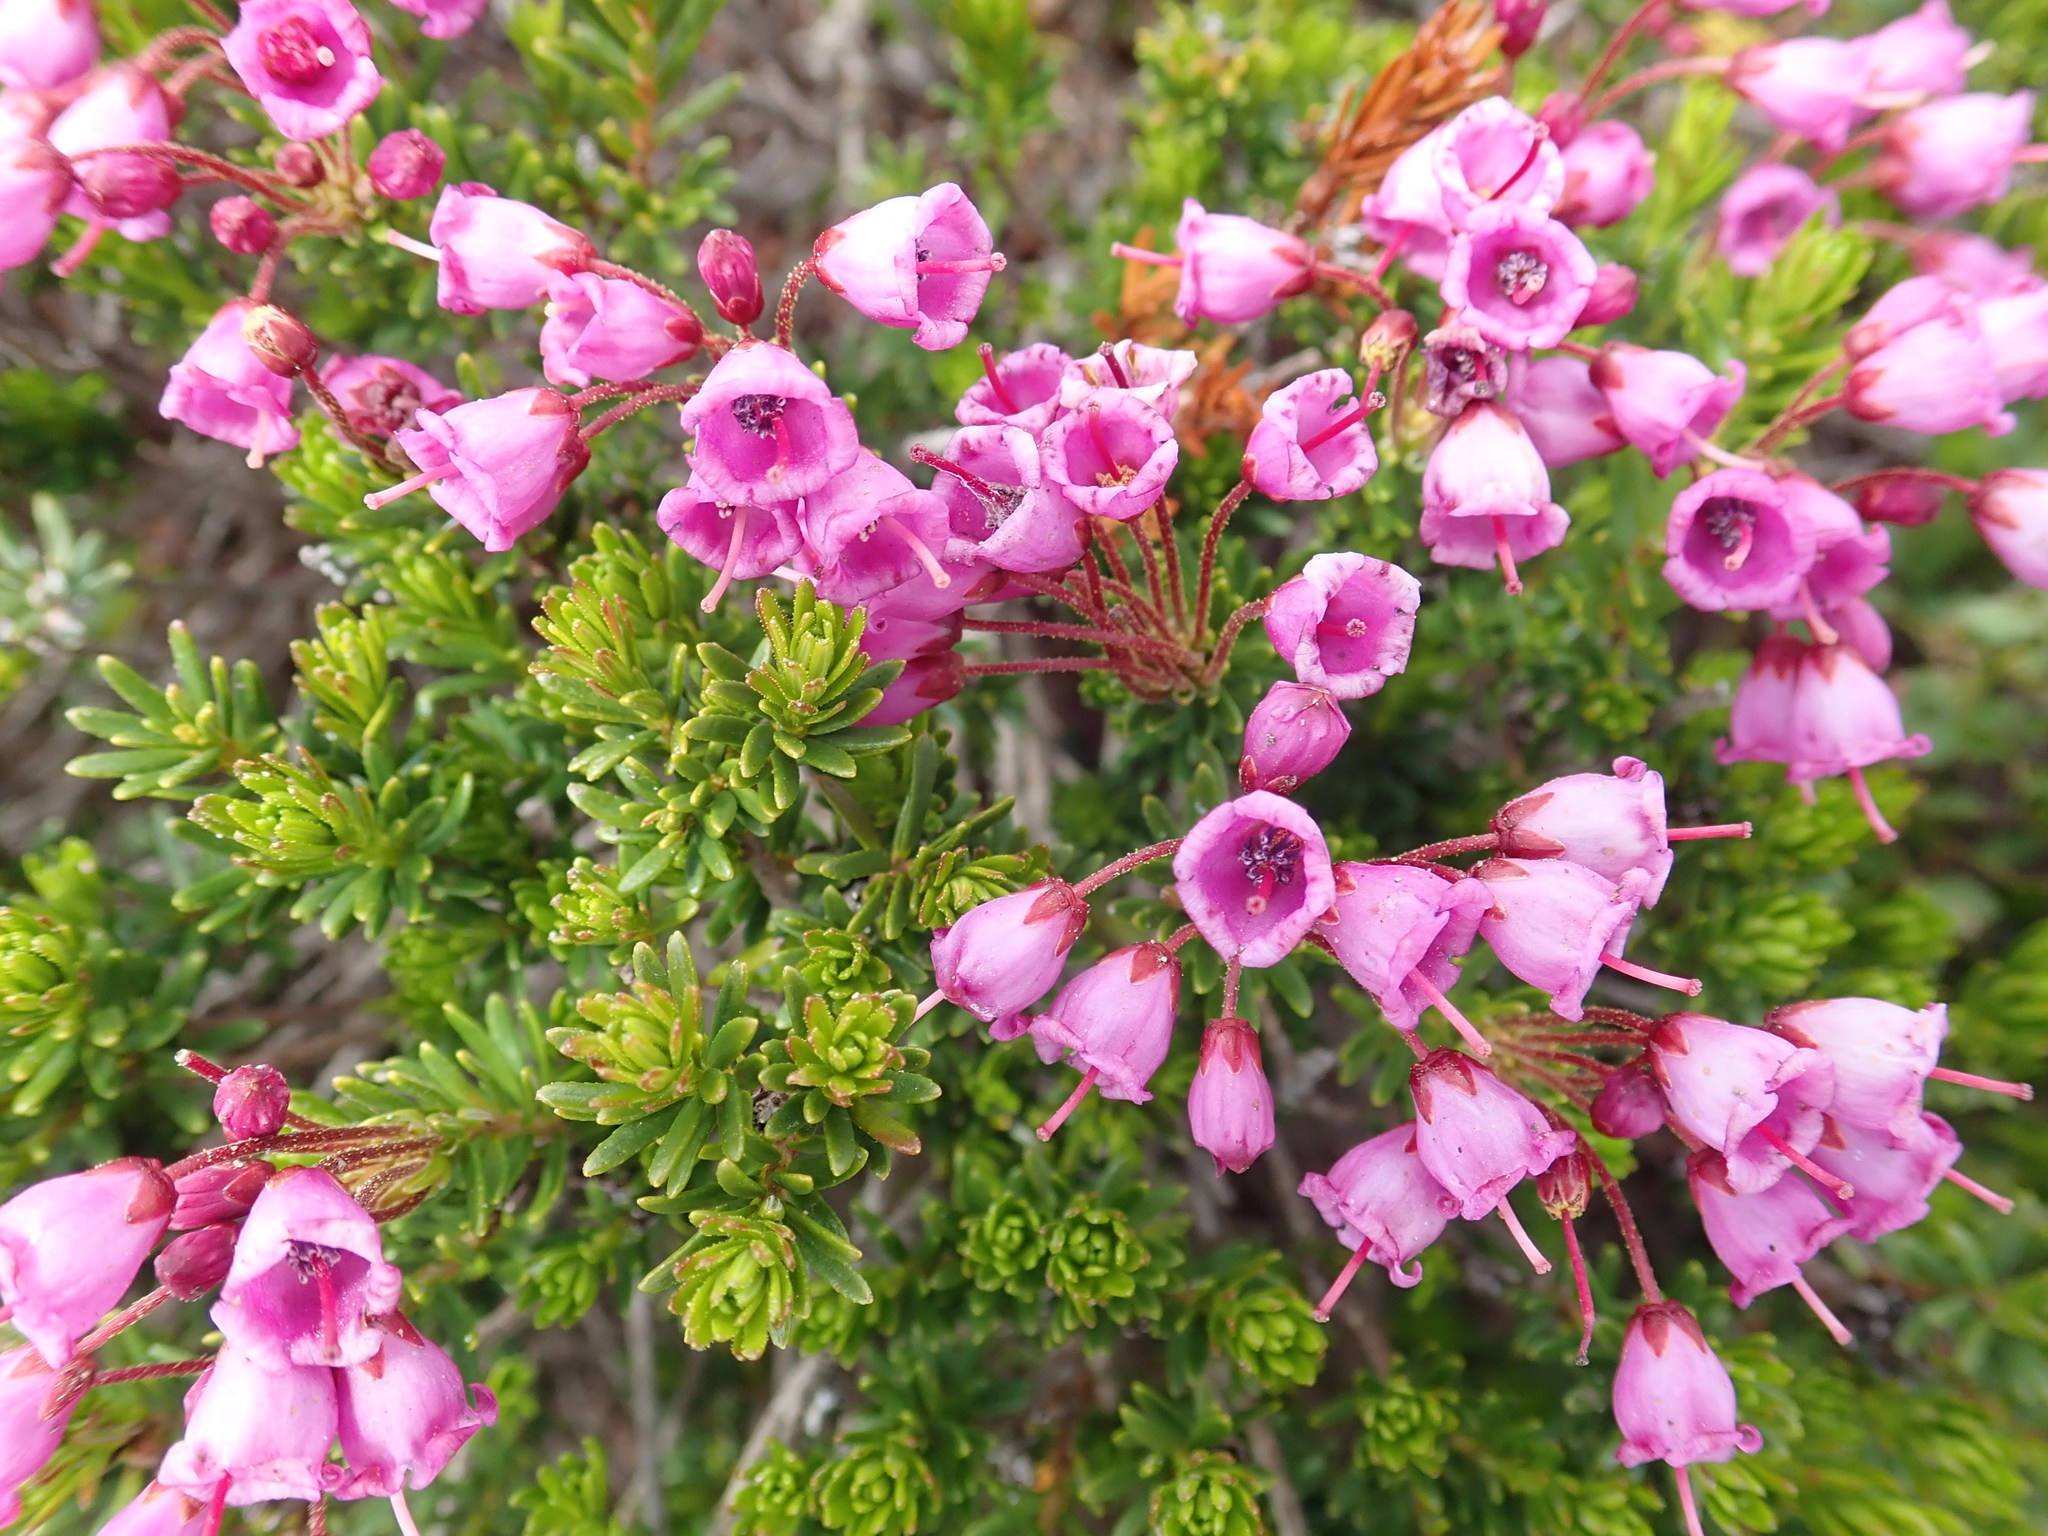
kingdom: Plantae
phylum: Tracheophyta
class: Magnoliopsida
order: Ericales
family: Ericaceae
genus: Phyllodoce
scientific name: Phyllodoce empetriformis
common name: Pink mountain heather
